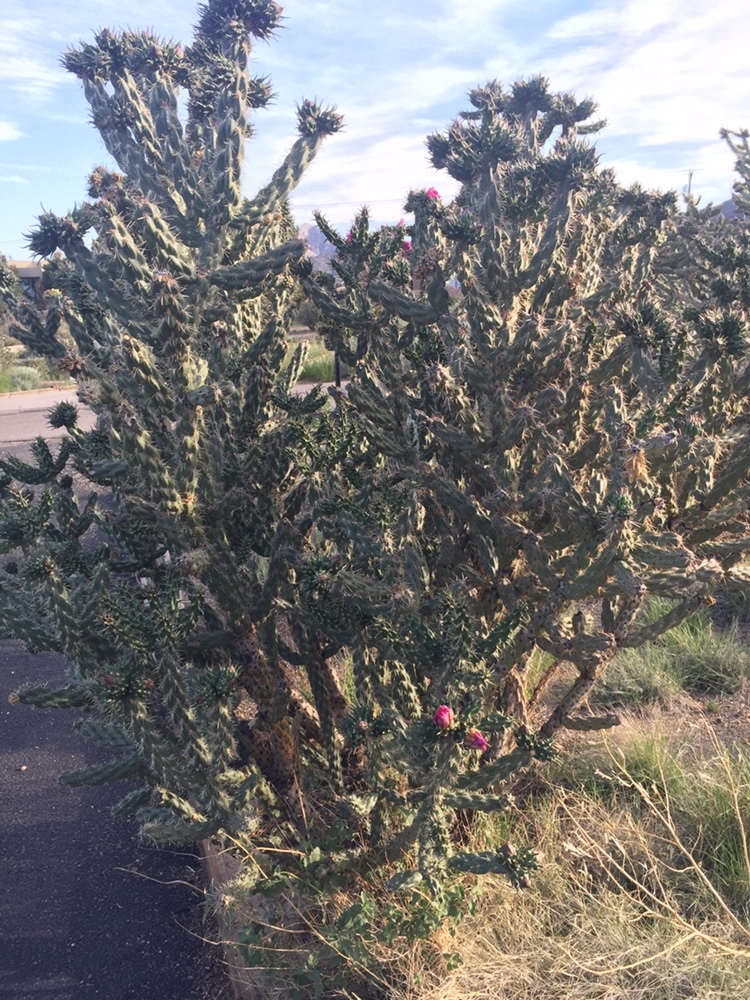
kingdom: Plantae
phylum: Tracheophyta
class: Magnoliopsida
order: Caryophyllales
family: Cactaceae
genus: Cylindropuntia
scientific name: Cylindropuntia imbricata
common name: Candelabrum cactus
